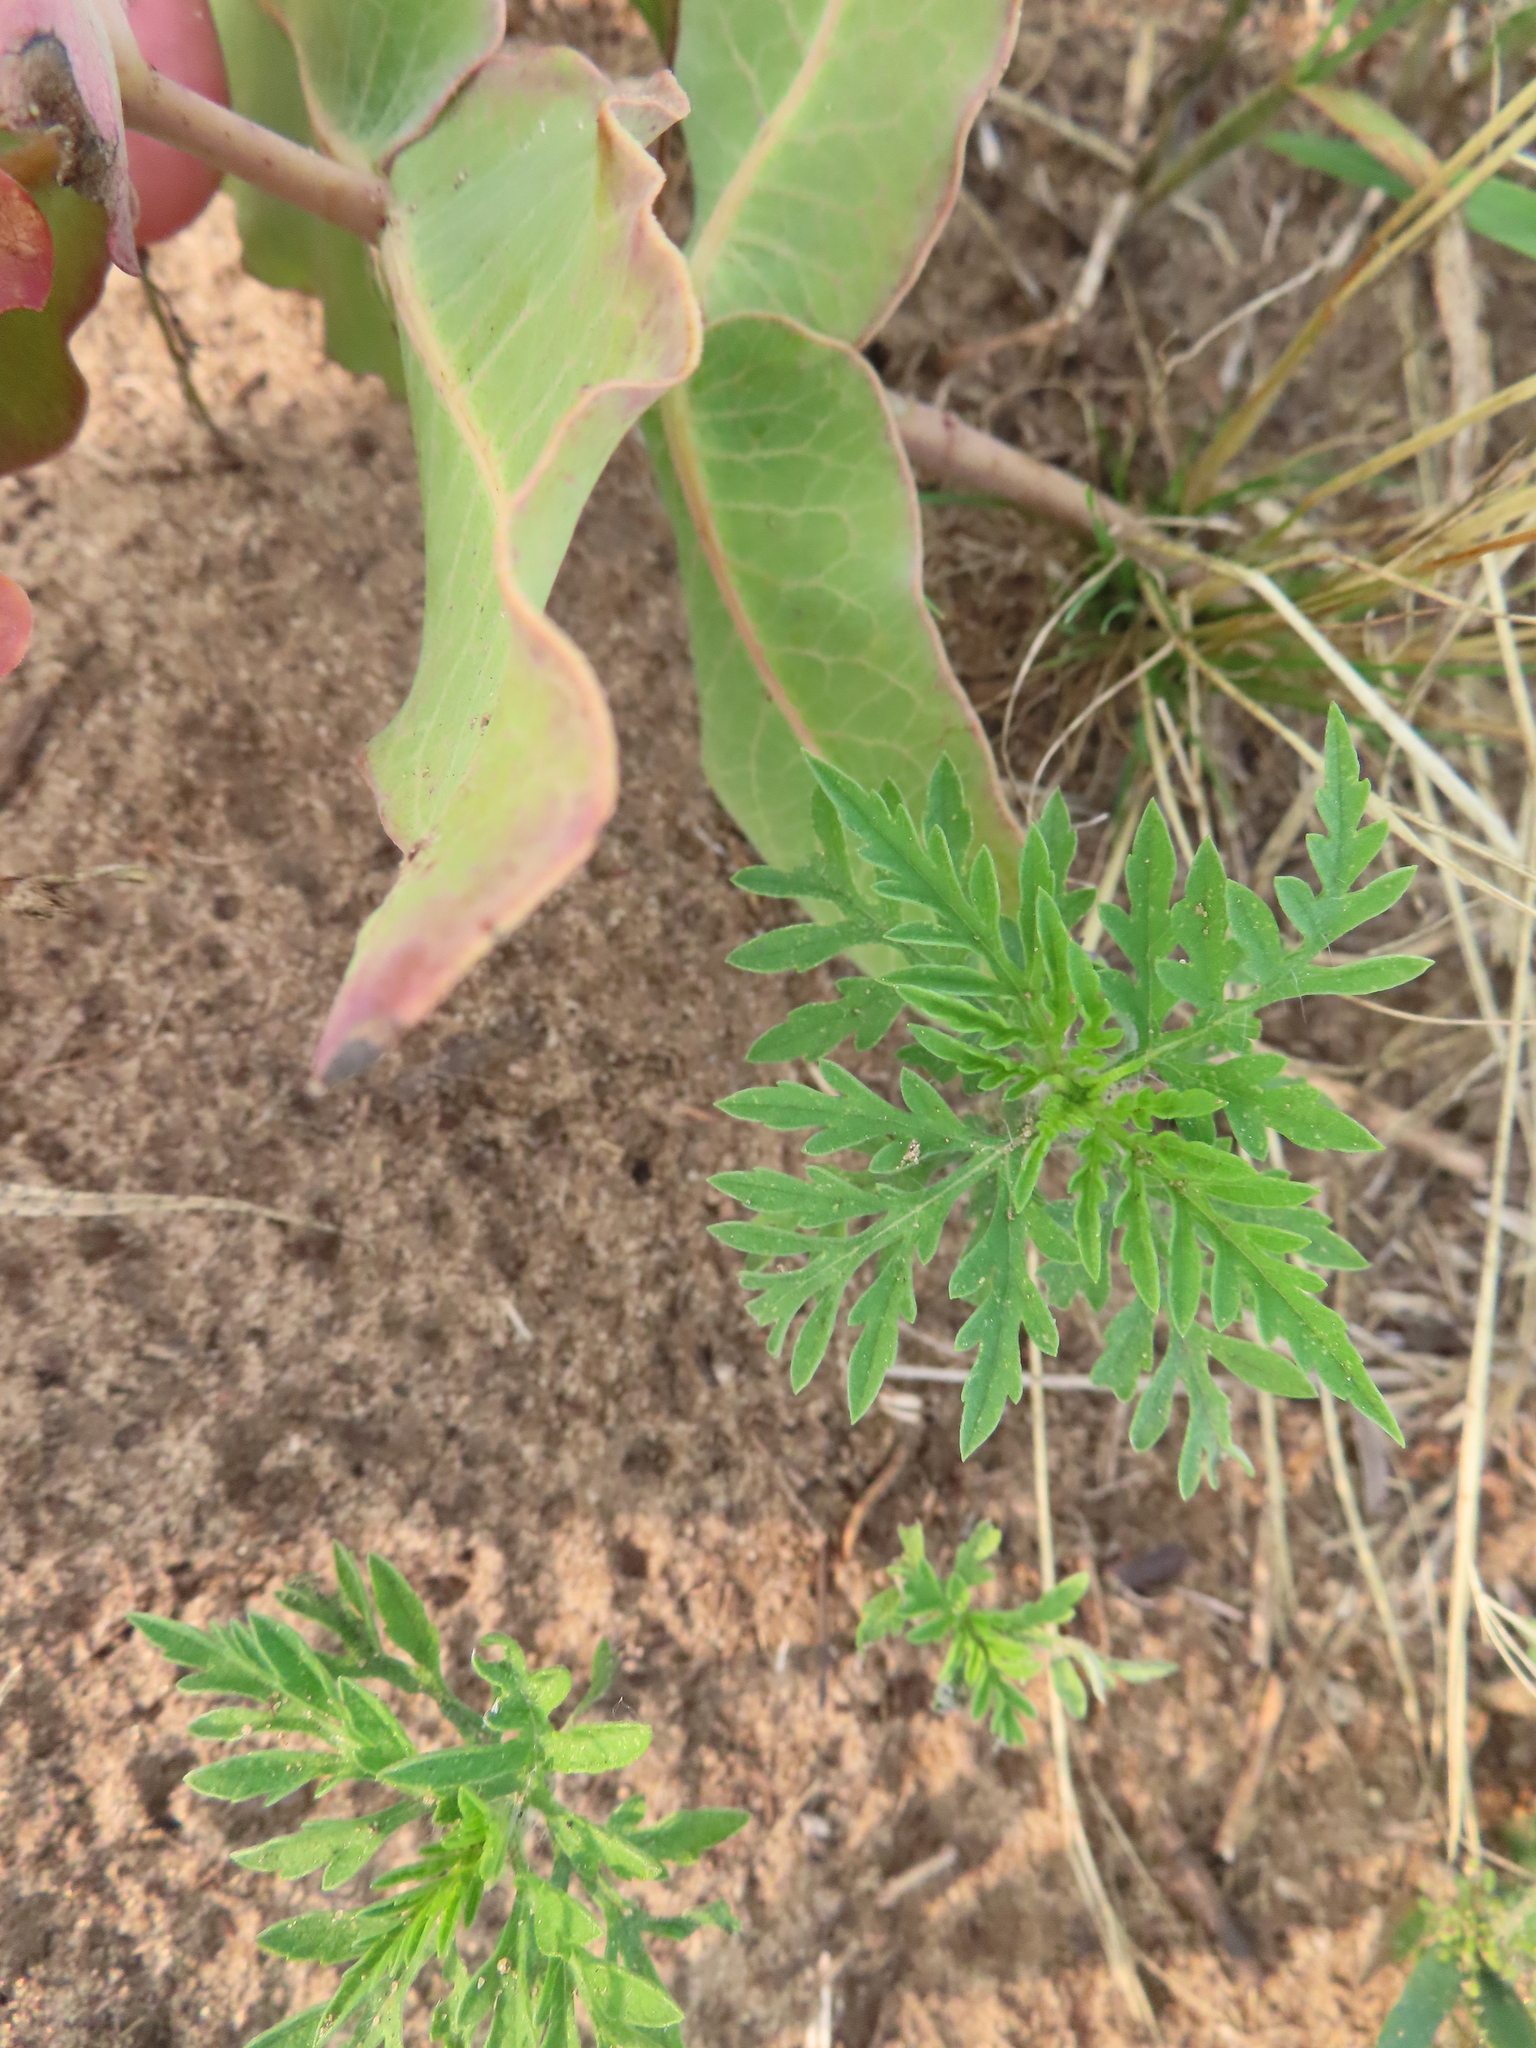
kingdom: Plantae
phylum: Tracheophyta
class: Magnoliopsida
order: Asterales
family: Asteraceae
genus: Ambrosia
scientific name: Ambrosia artemisiifolia
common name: Annual ragweed
